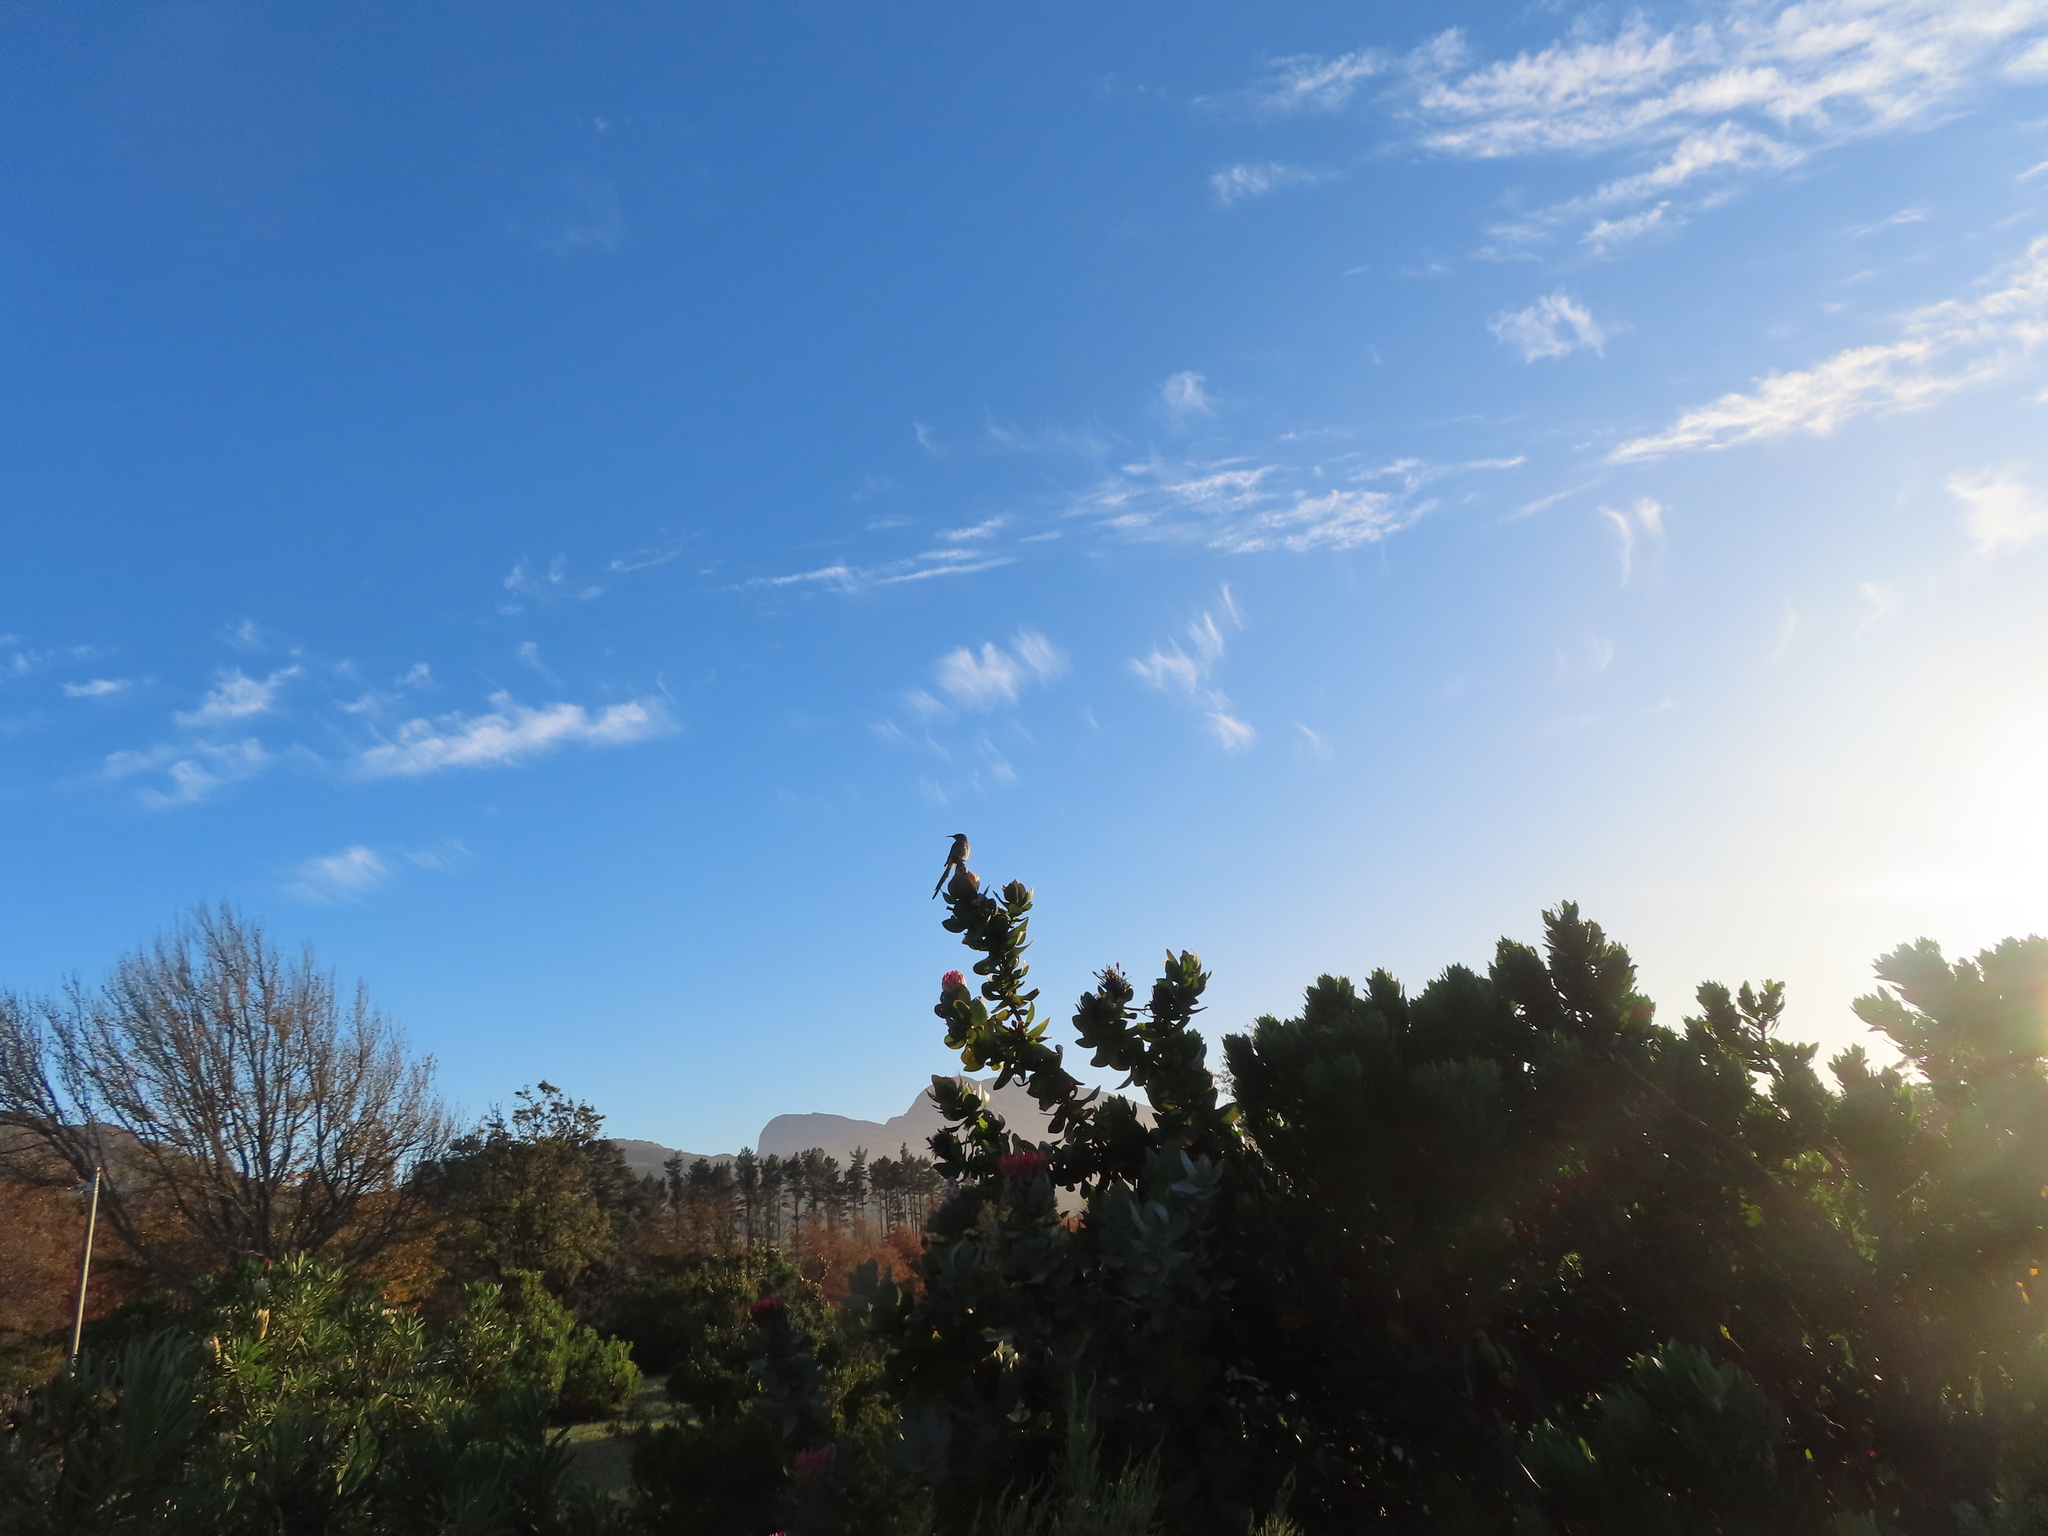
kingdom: Animalia
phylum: Chordata
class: Aves
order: Passeriformes
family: Promeropidae
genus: Promerops
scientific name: Promerops cafer
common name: Cape sugarbird
